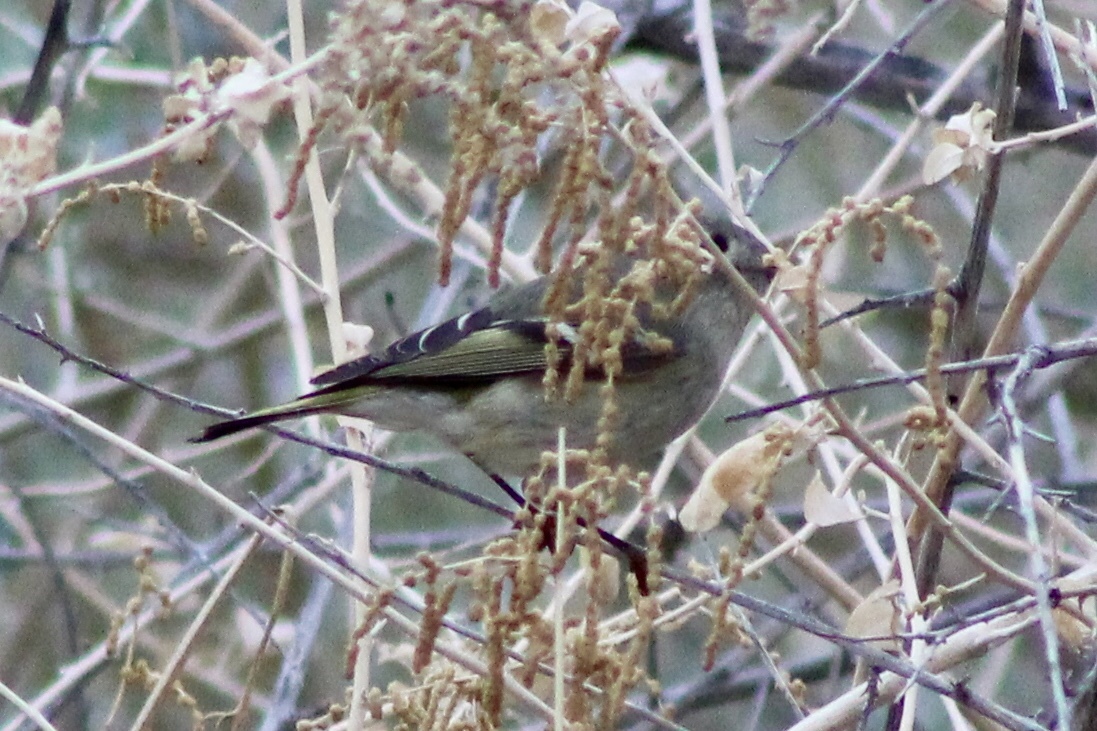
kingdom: Animalia
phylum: Chordata
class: Aves
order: Passeriformes
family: Regulidae
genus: Regulus
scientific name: Regulus calendula
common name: Ruby-crowned kinglet
